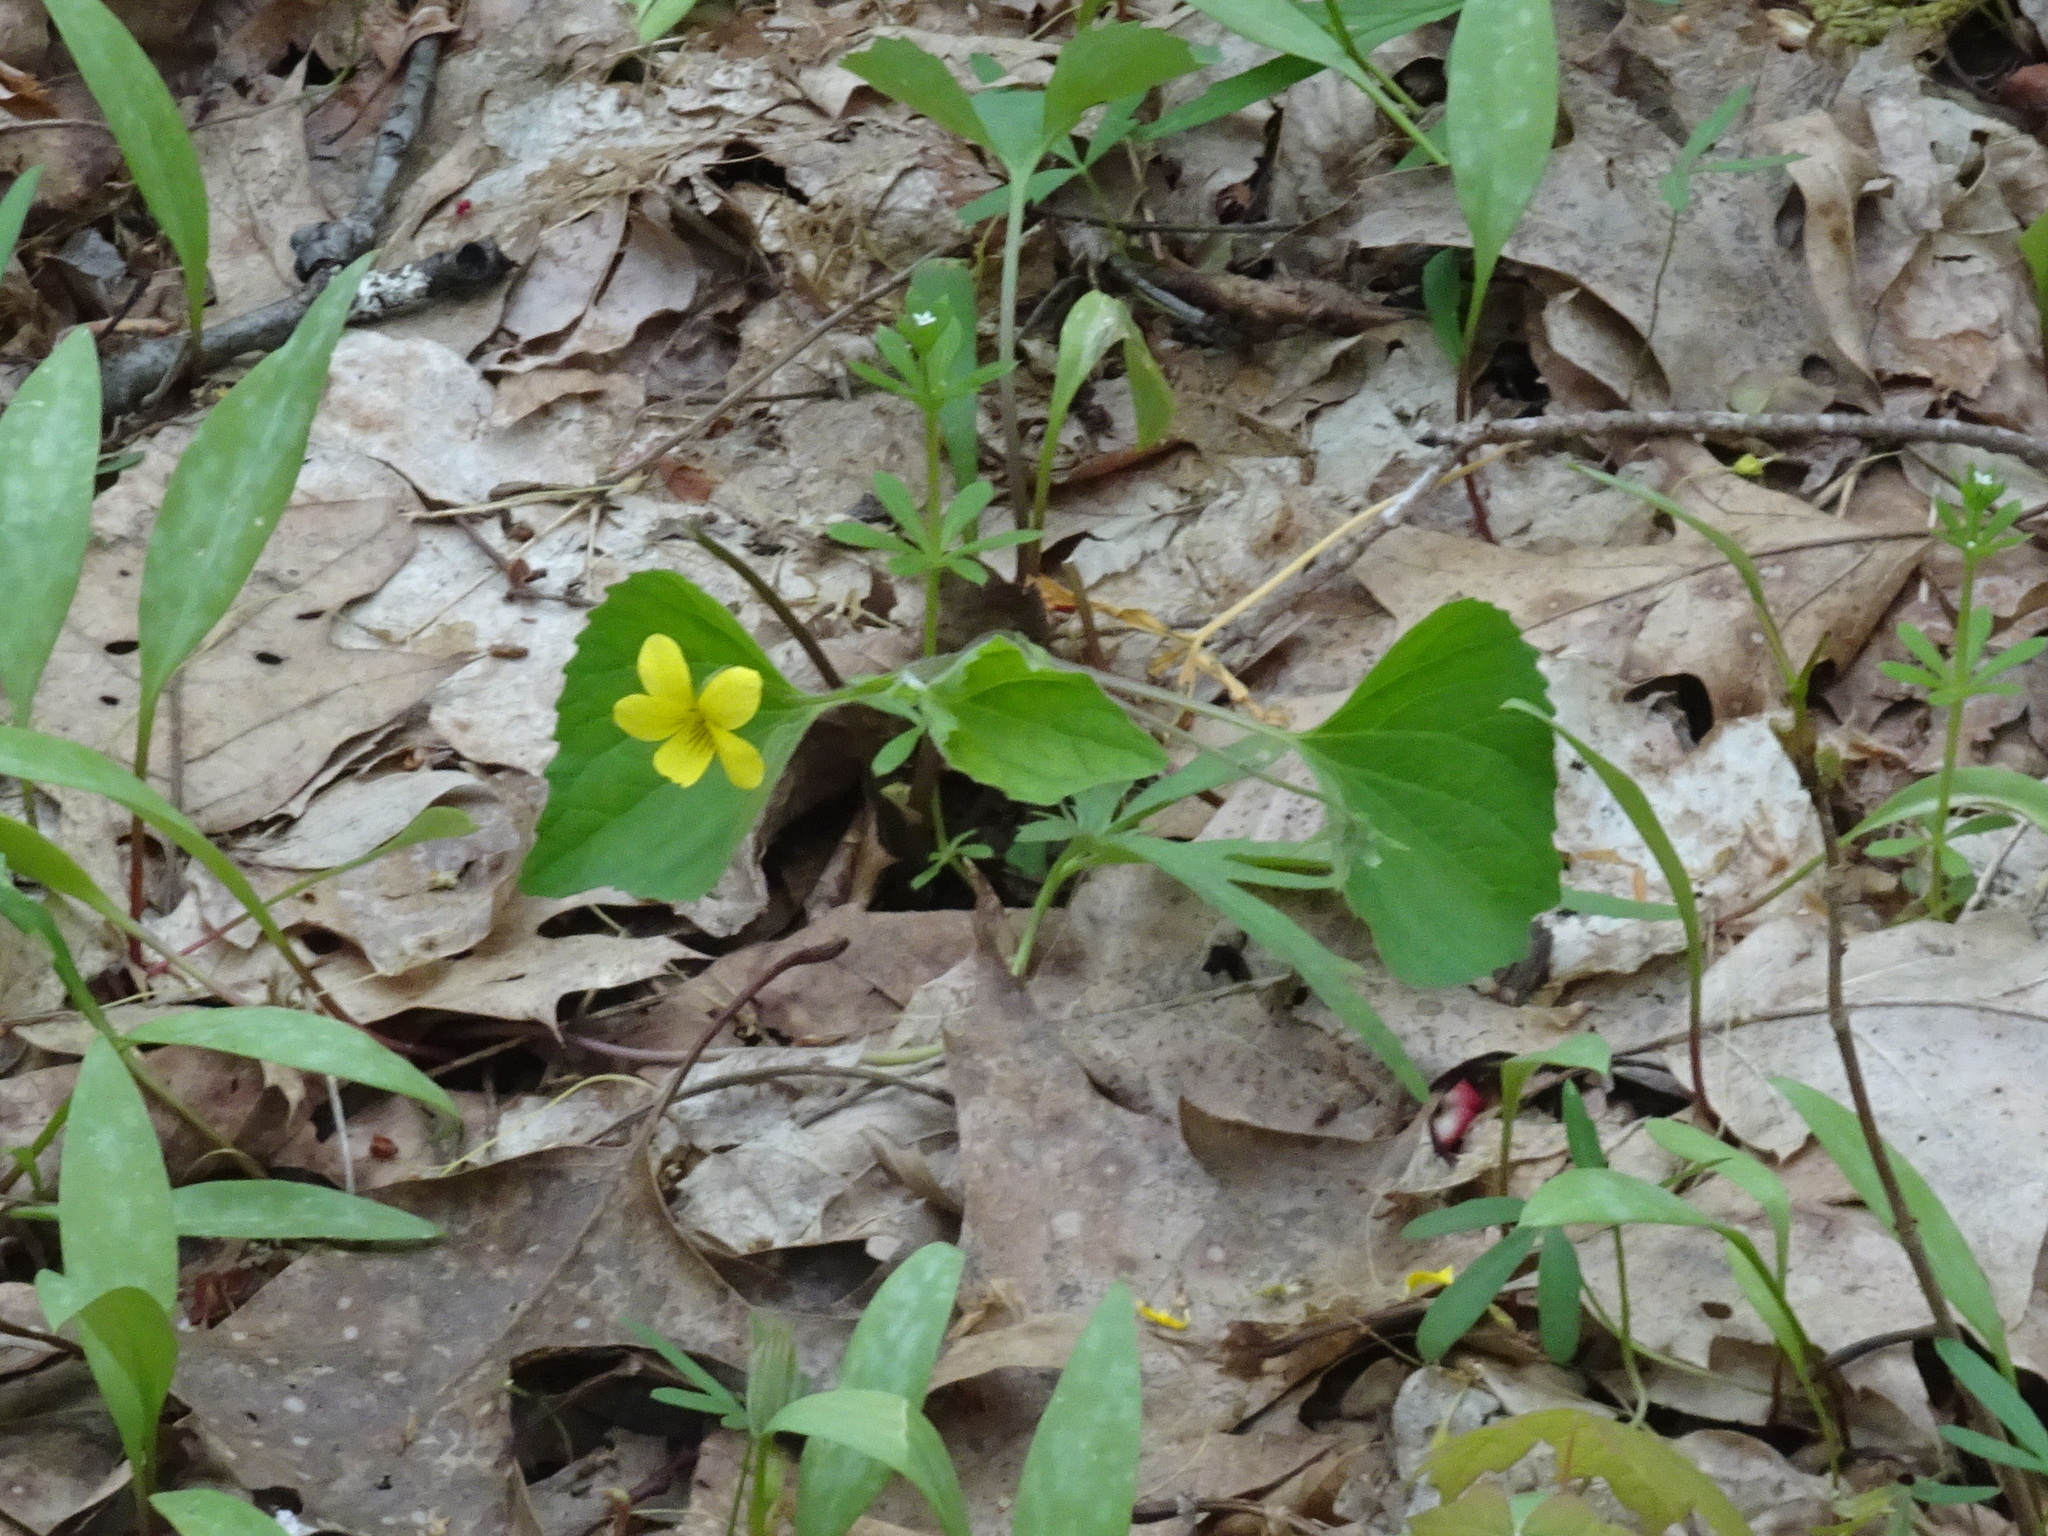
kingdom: Plantae
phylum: Tracheophyta
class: Magnoliopsida
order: Malpighiales
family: Violaceae
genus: Viola
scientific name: Viola eriocarpa
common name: Smooth yellow violet
